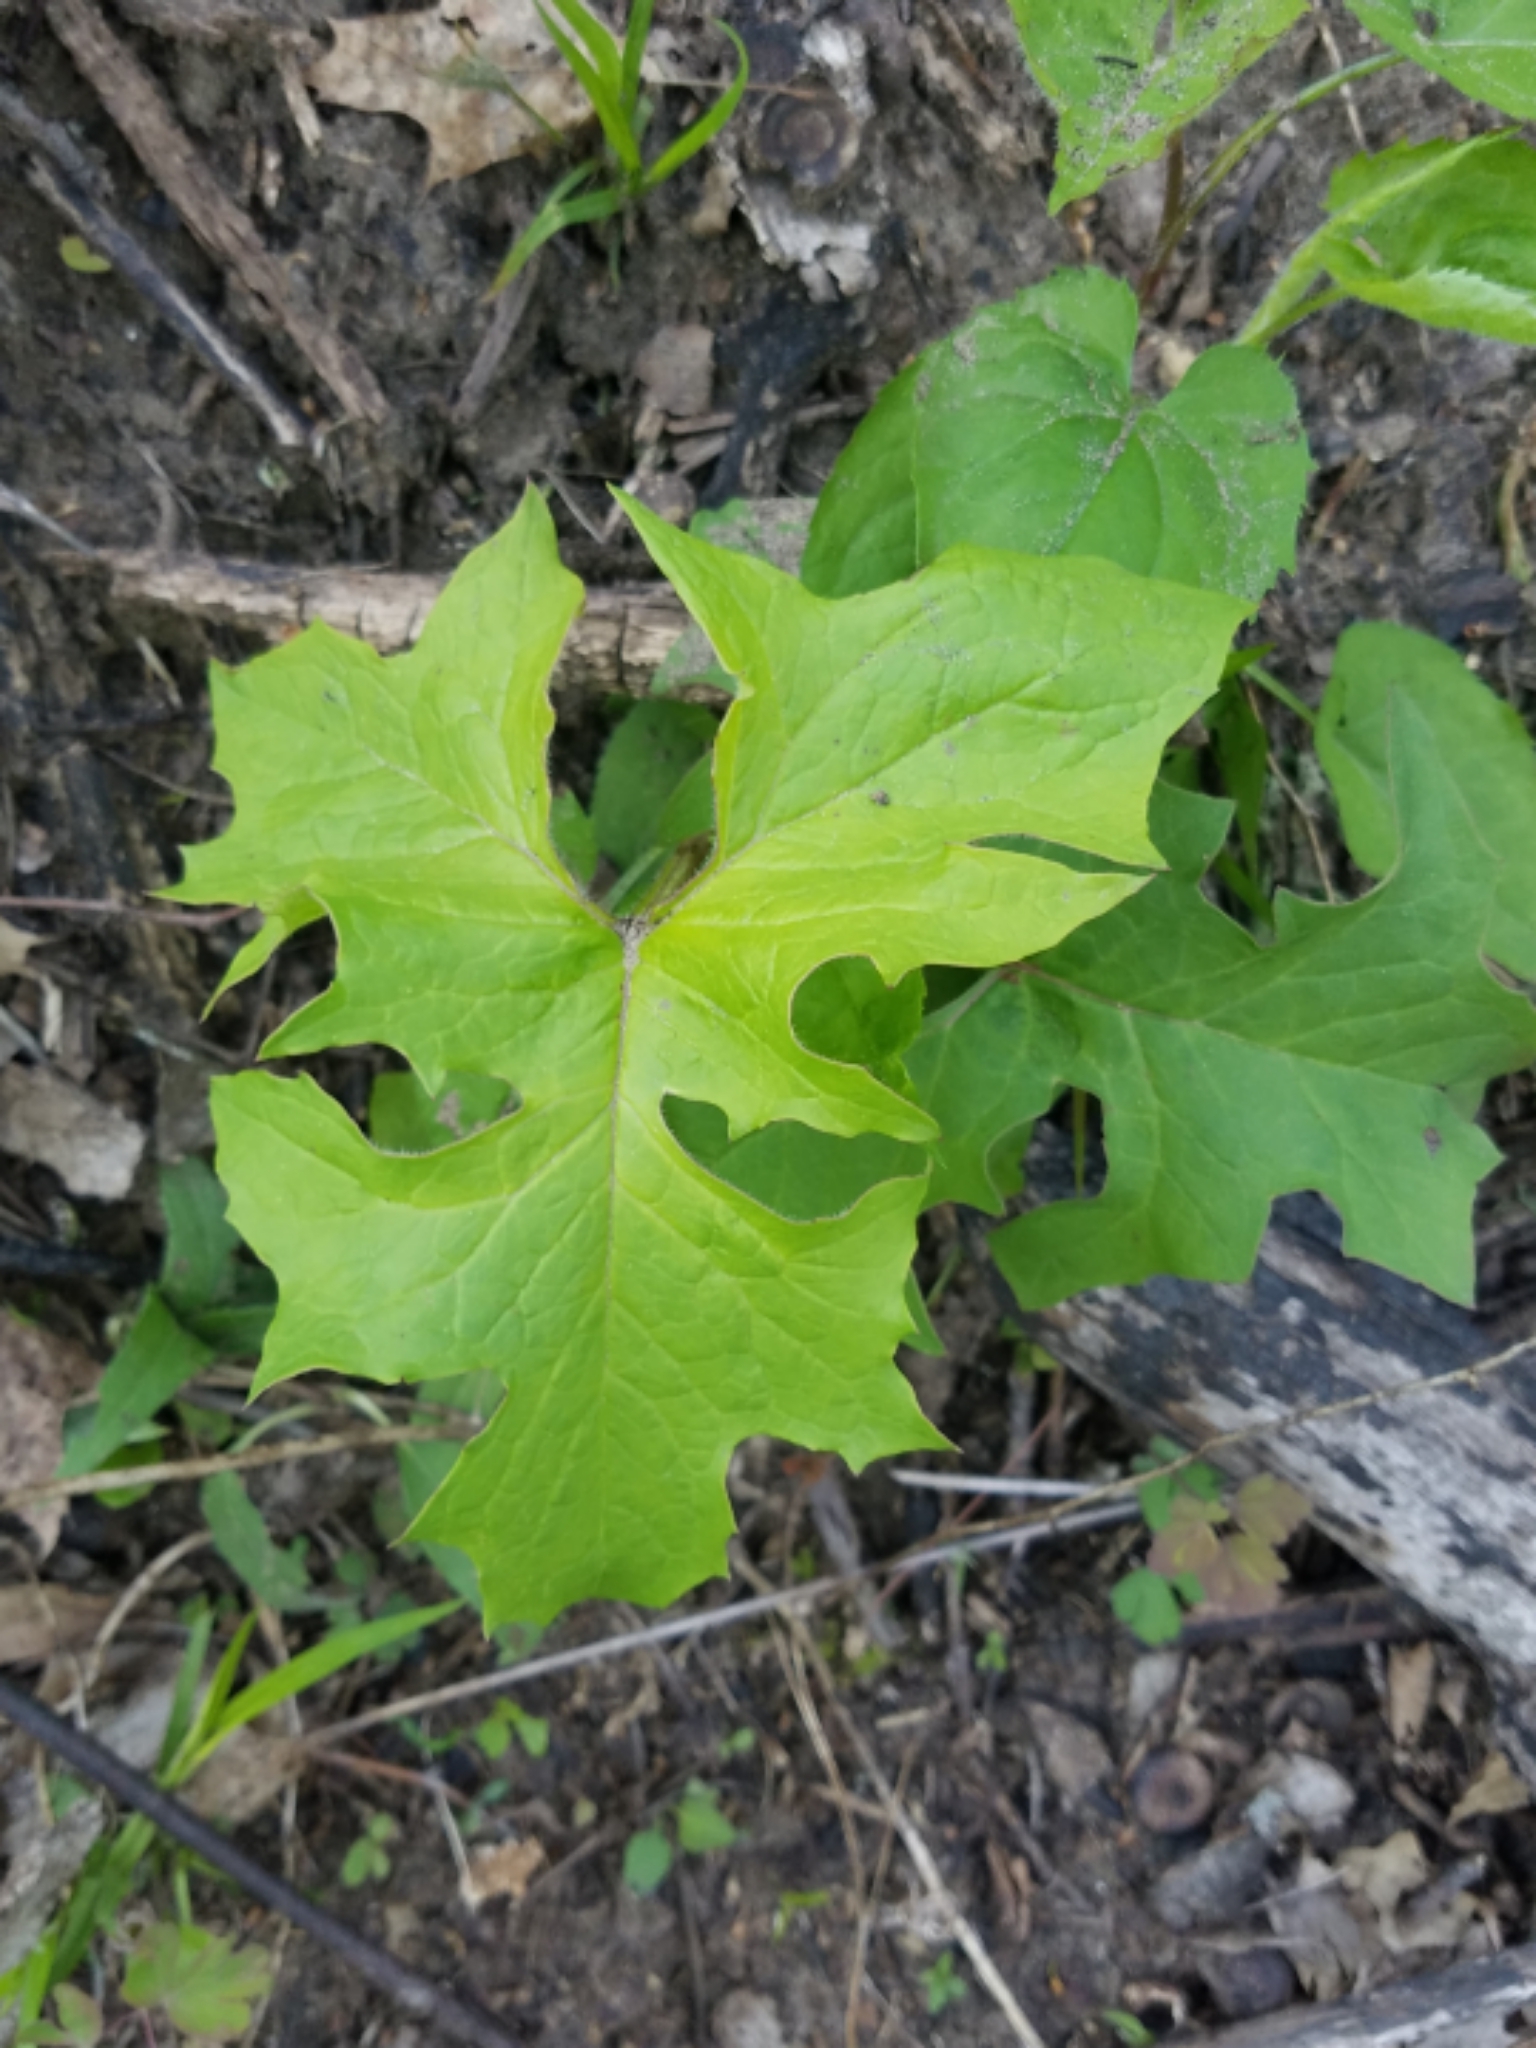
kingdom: Plantae
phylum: Tracheophyta
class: Magnoliopsida
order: Asterales
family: Asteraceae
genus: Nabalus
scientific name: Nabalus albus
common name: White rattlesnakeroot
